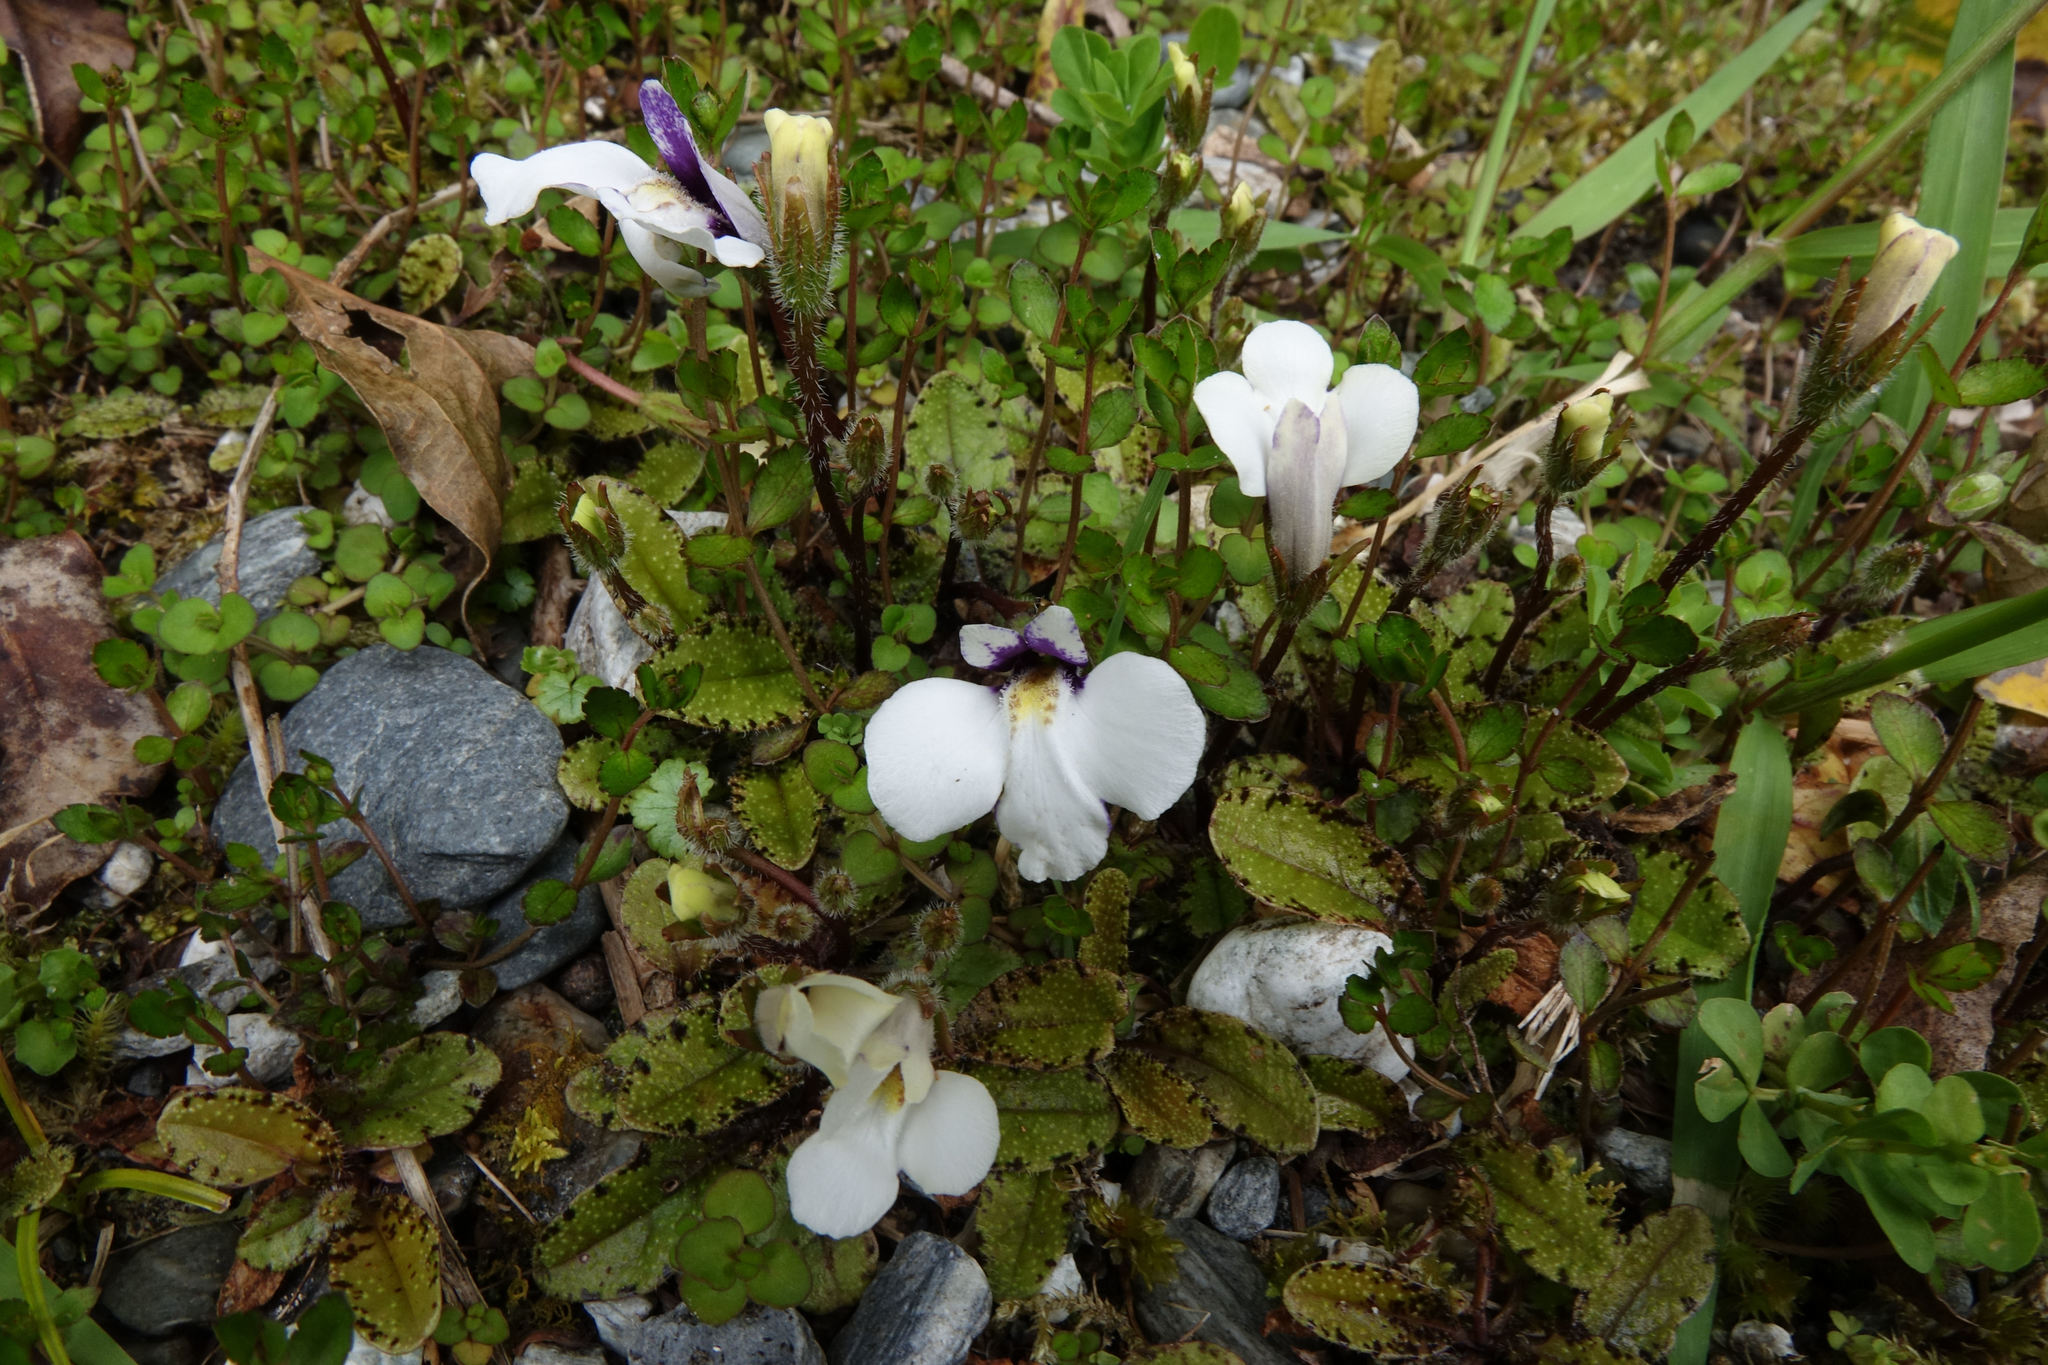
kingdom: Plantae
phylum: Tracheophyta
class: Magnoliopsida
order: Lamiales
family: Mazaceae
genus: Mazus
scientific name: Mazus radicans
